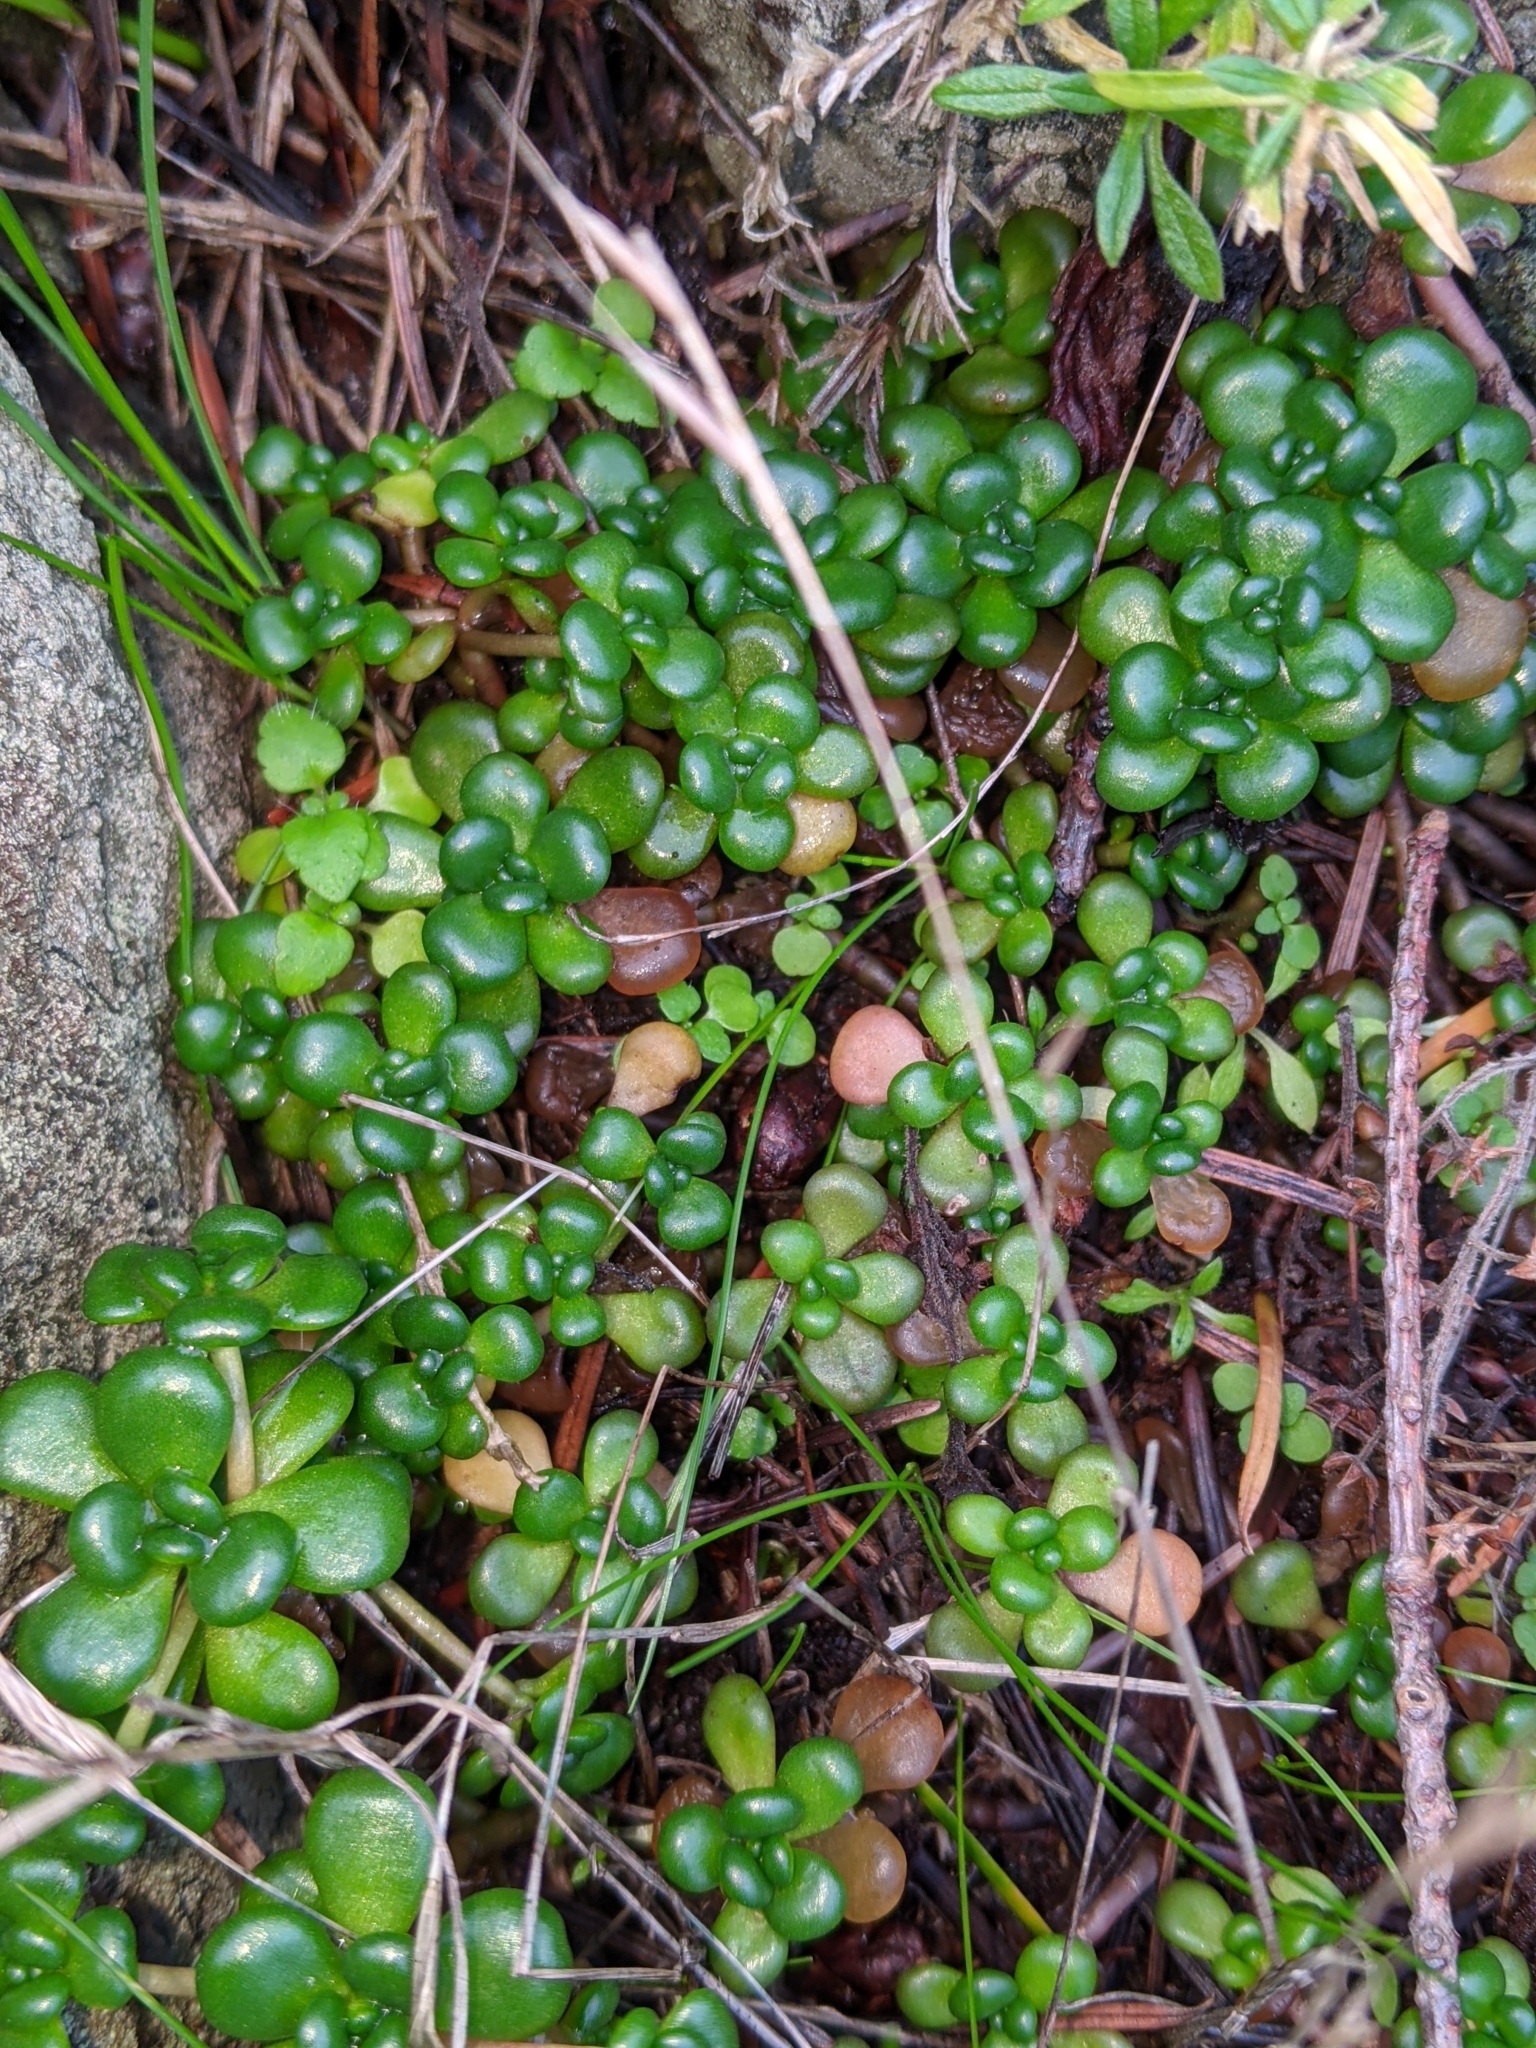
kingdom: Plantae
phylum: Tracheophyta
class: Magnoliopsida
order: Saxifragales
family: Crassulaceae
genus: Sedum
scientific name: Sedum oreganum
